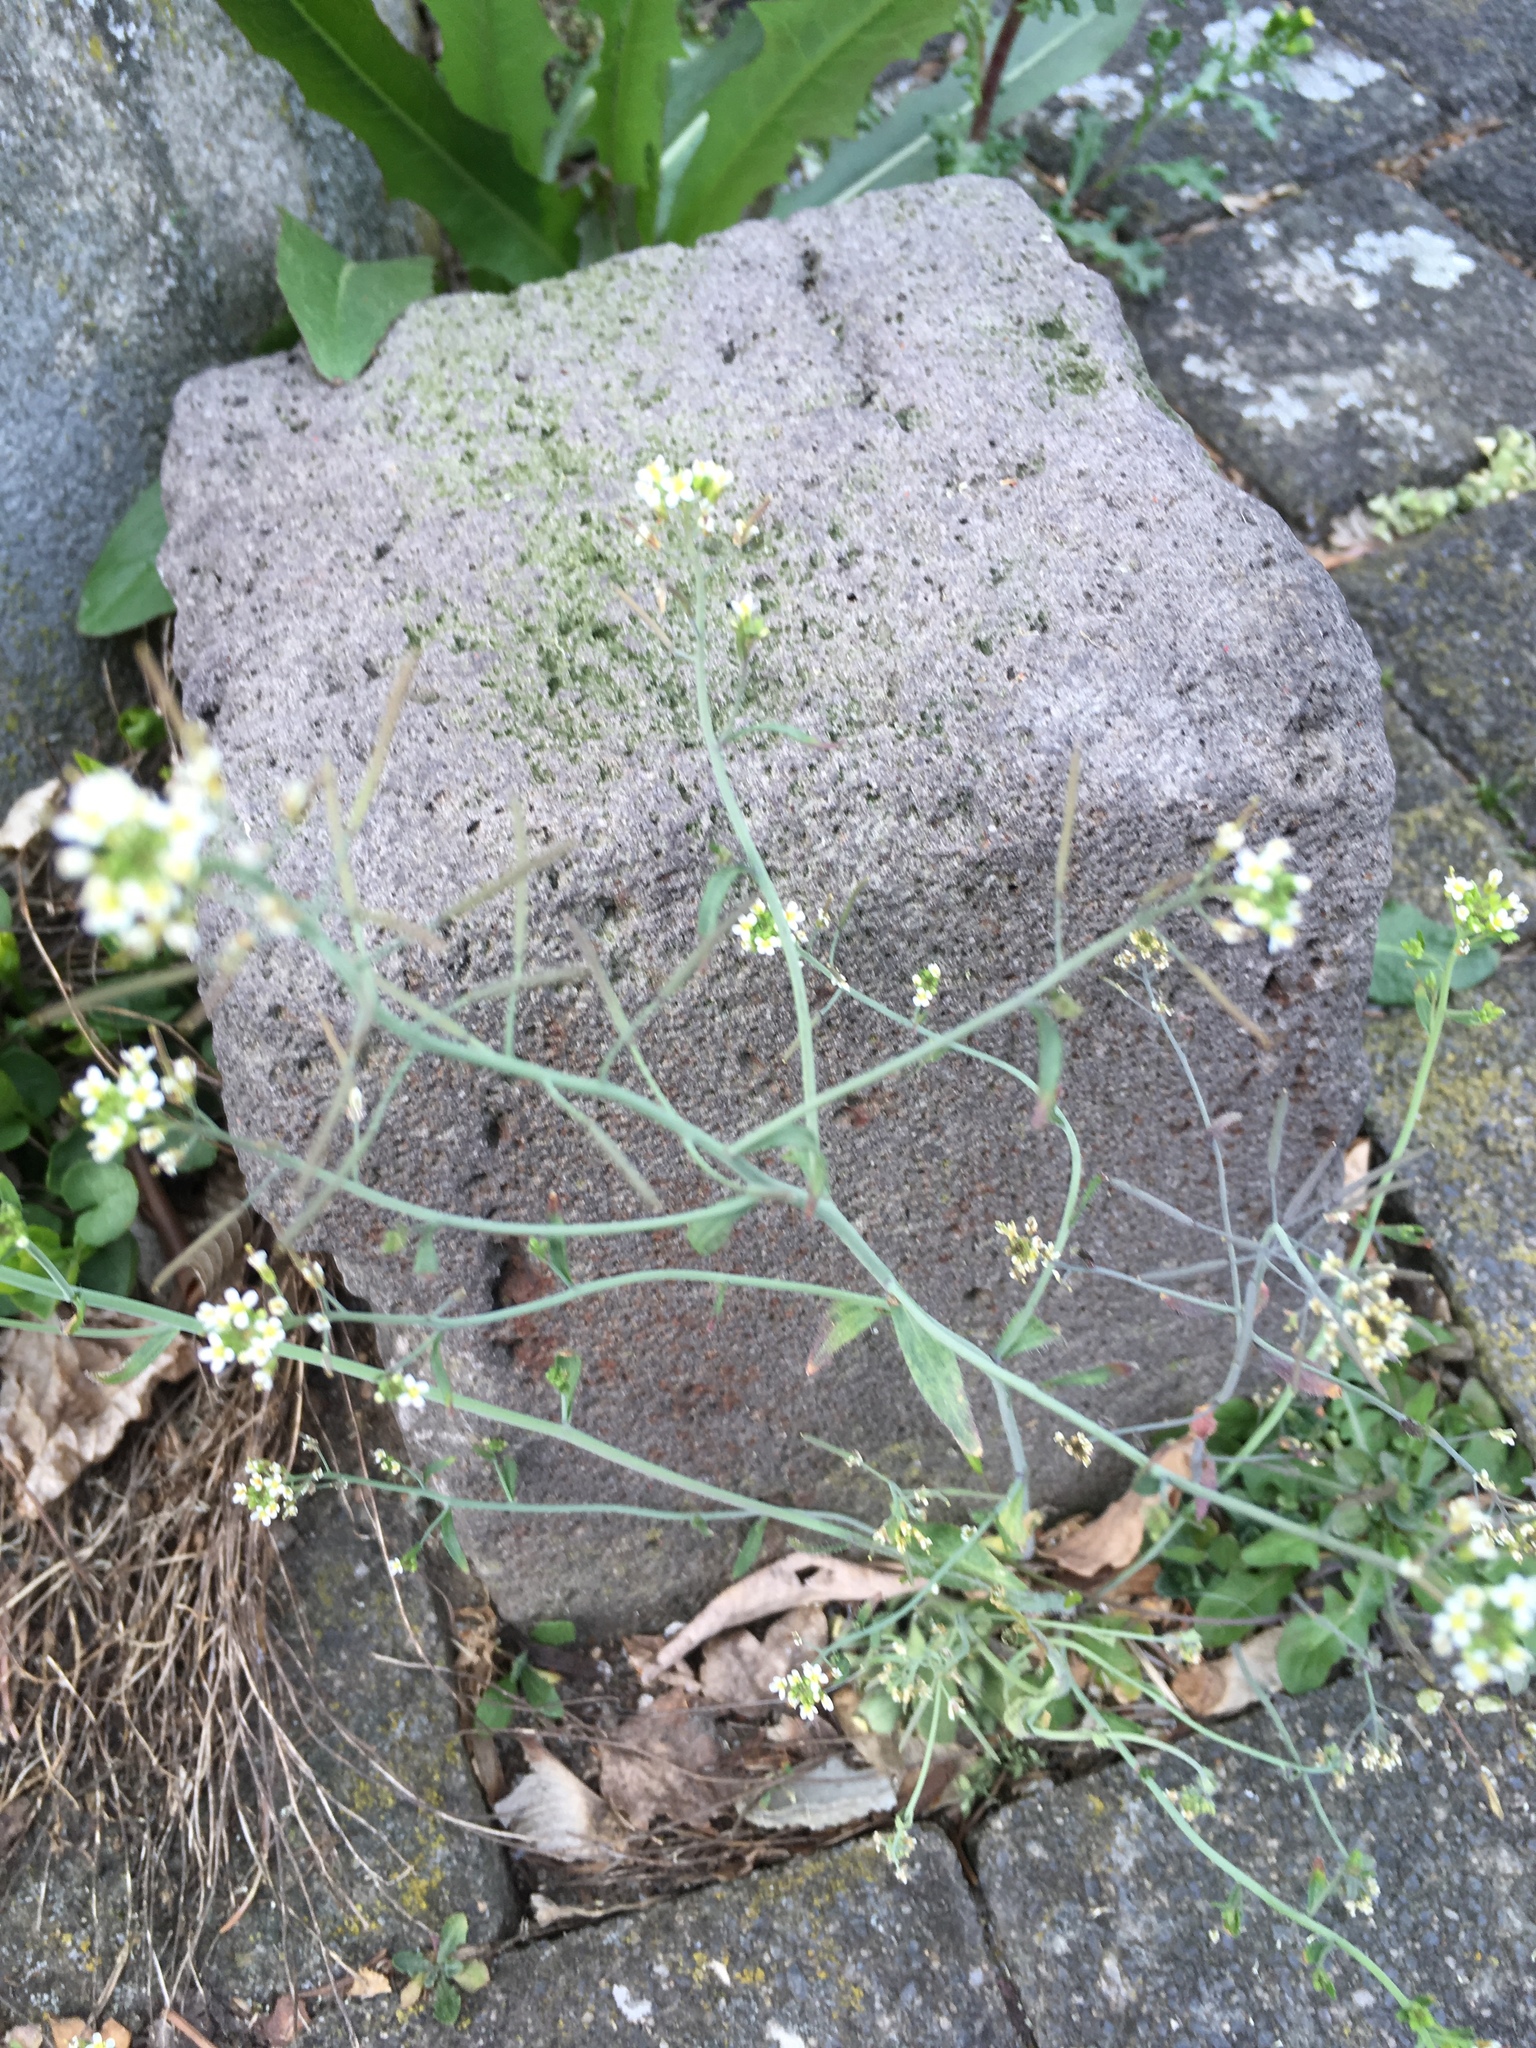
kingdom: Plantae
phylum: Tracheophyta
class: Magnoliopsida
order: Brassicales
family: Brassicaceae
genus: Arabidopsis
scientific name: Arabidopsis thaliana
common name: Thale cress
